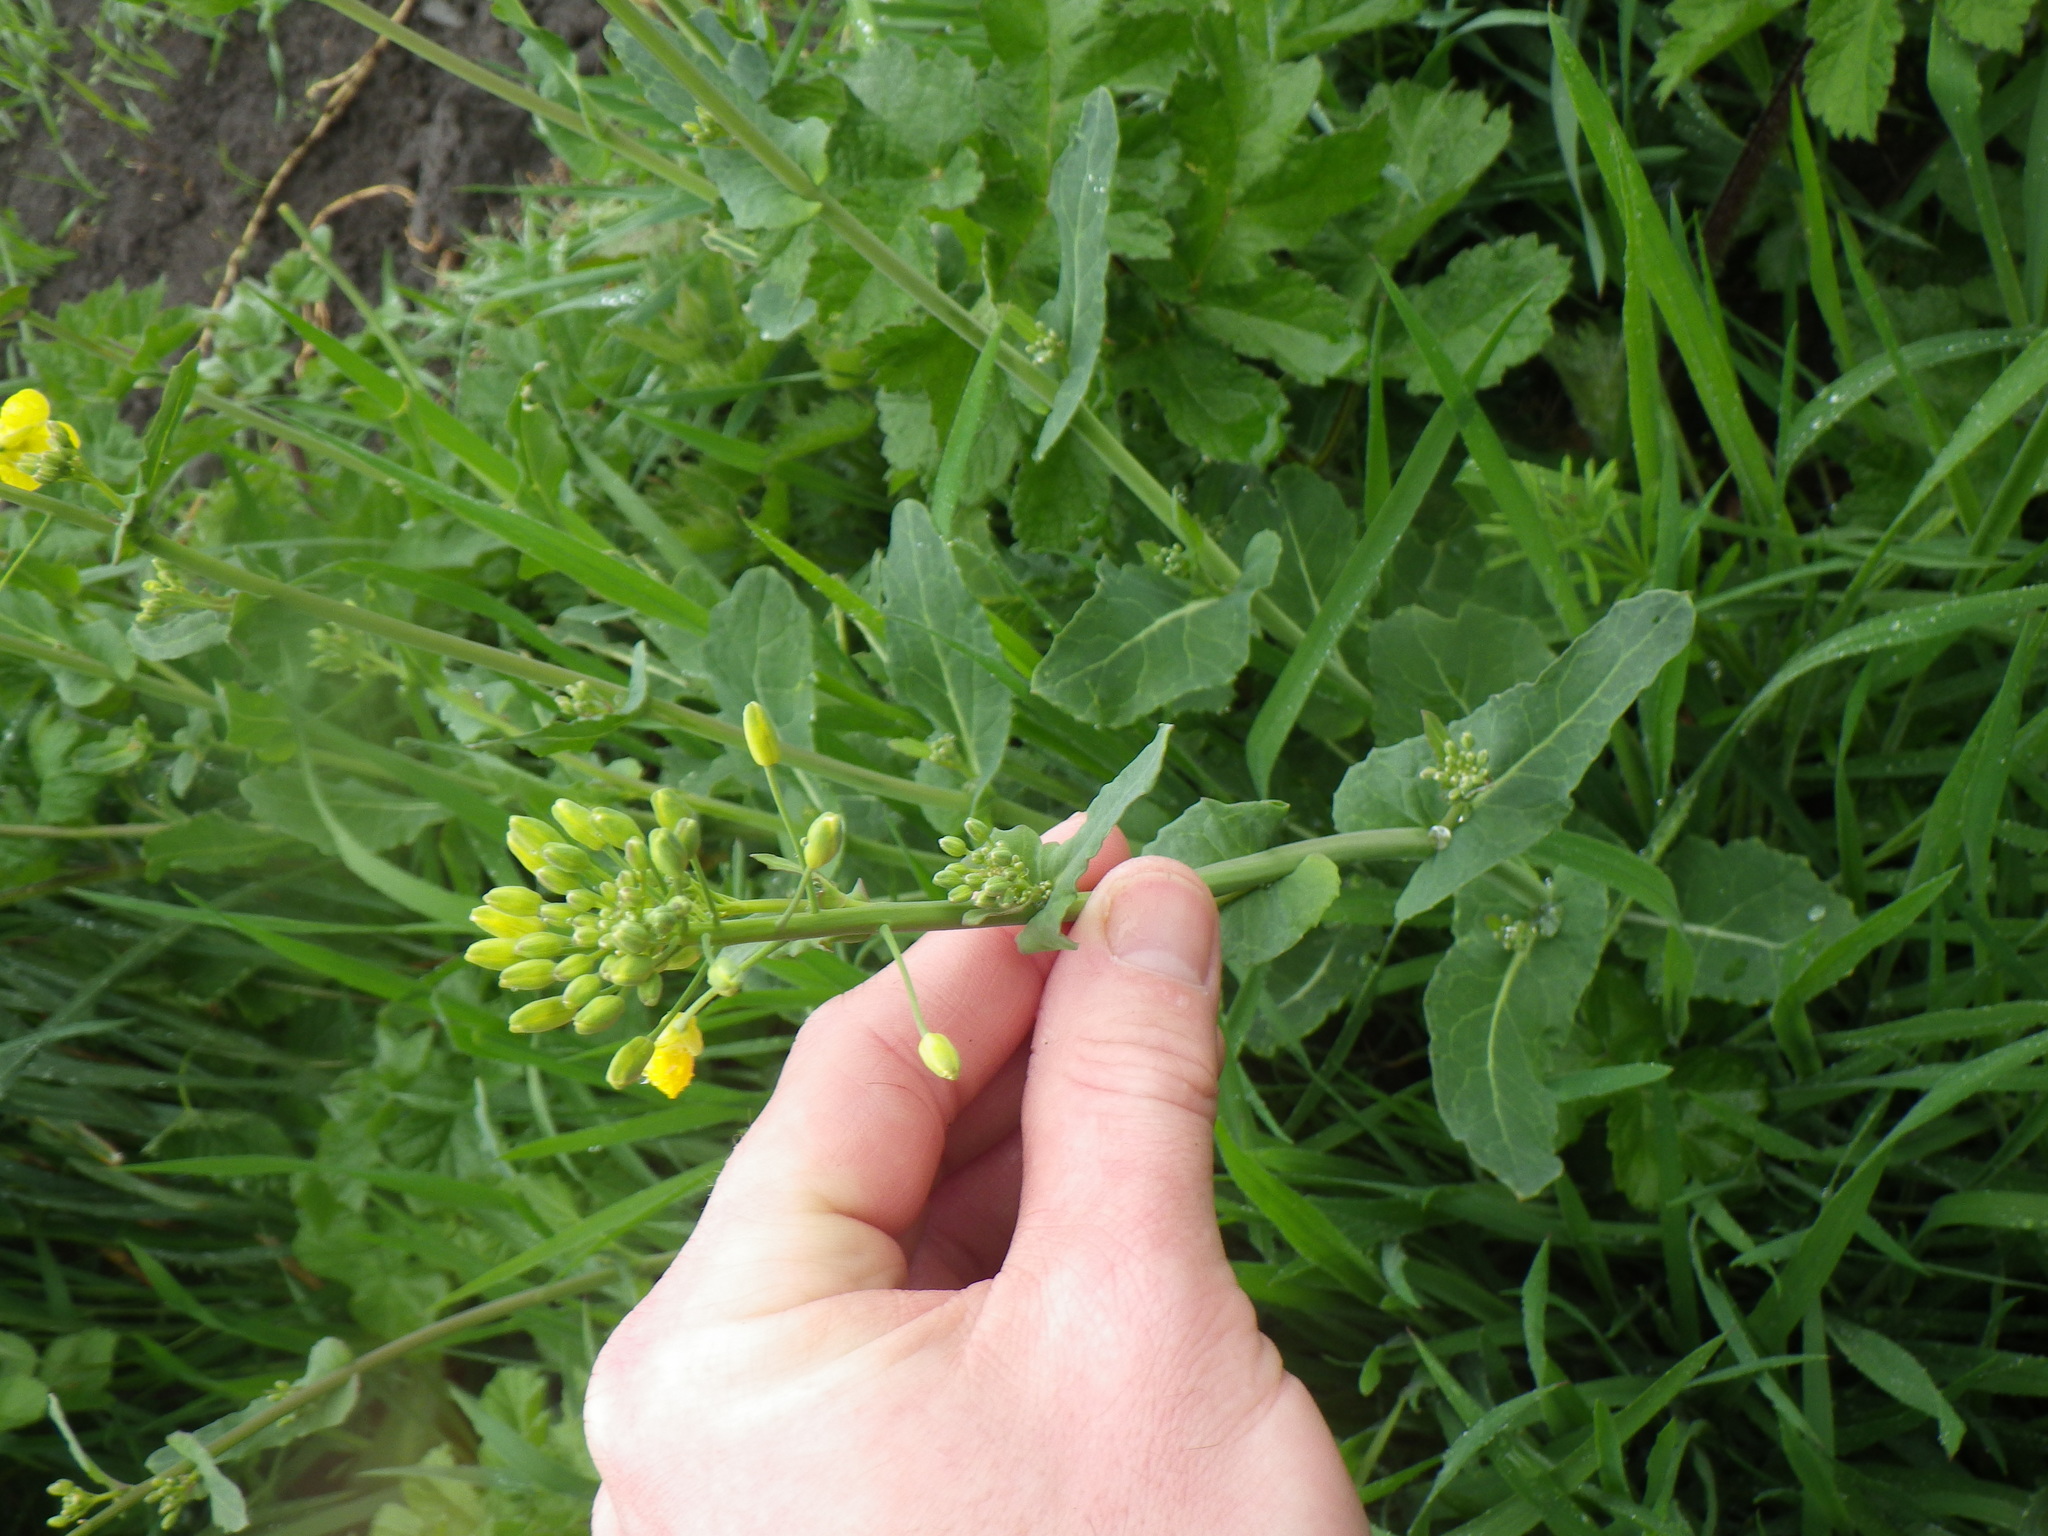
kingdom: Plantae
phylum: Tracheophyta
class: Magnoliopsida
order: Brassicales
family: Brassicaceae
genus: Brassica
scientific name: Brassica rapa
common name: Field mustard
